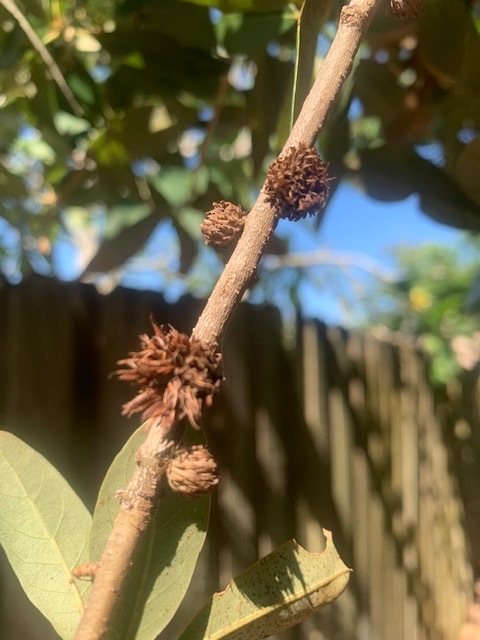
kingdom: Animalia
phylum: Arthropoda
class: Insecta
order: Hymenoptera
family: Cynipidae
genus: Andricus
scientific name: Andricus quercusfoliatus
